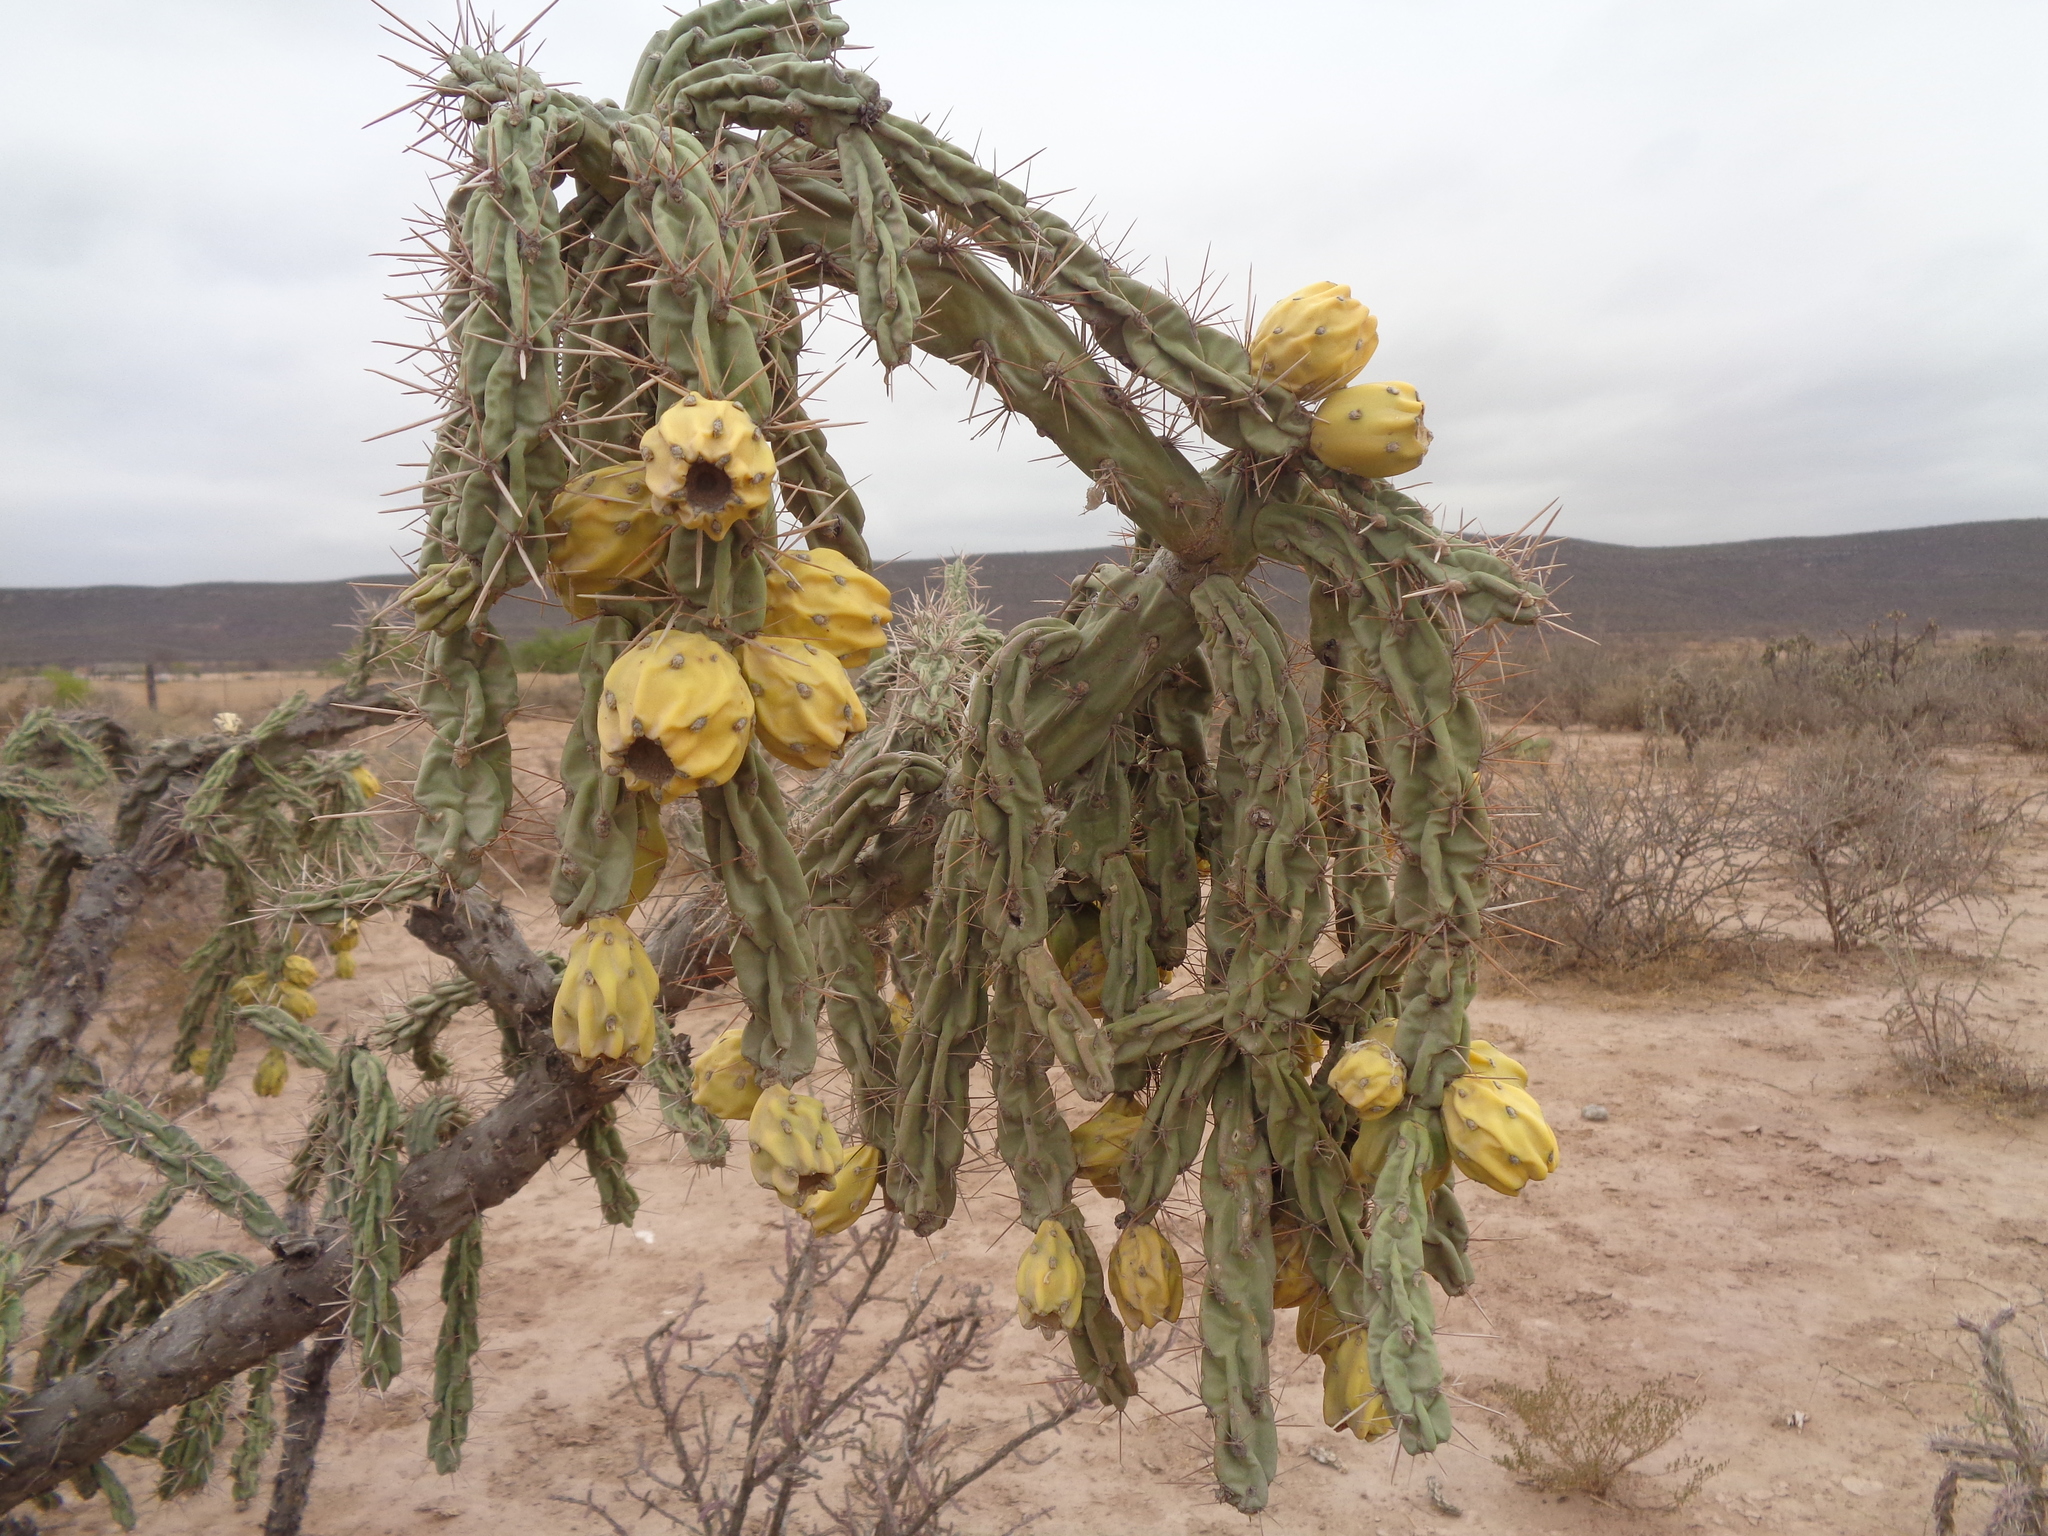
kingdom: Plantae
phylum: Tracheophyta
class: Magnoliopsida
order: Caryophyllales
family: Cactaceae
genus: Cylindropuntia
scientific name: Cylindropuntia imbricata
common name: Candelabrum cactus
